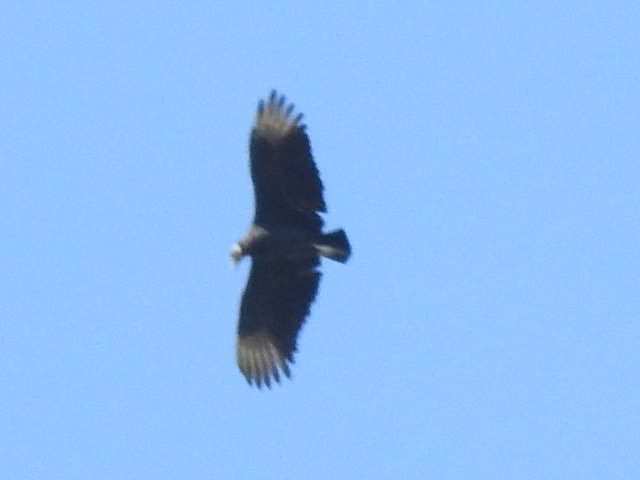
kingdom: Animalia
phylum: Chordata
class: Aves
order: Accipitriformes
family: Cathartidae
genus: Coragyps
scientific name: Coragyps atratus
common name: Black vulture
